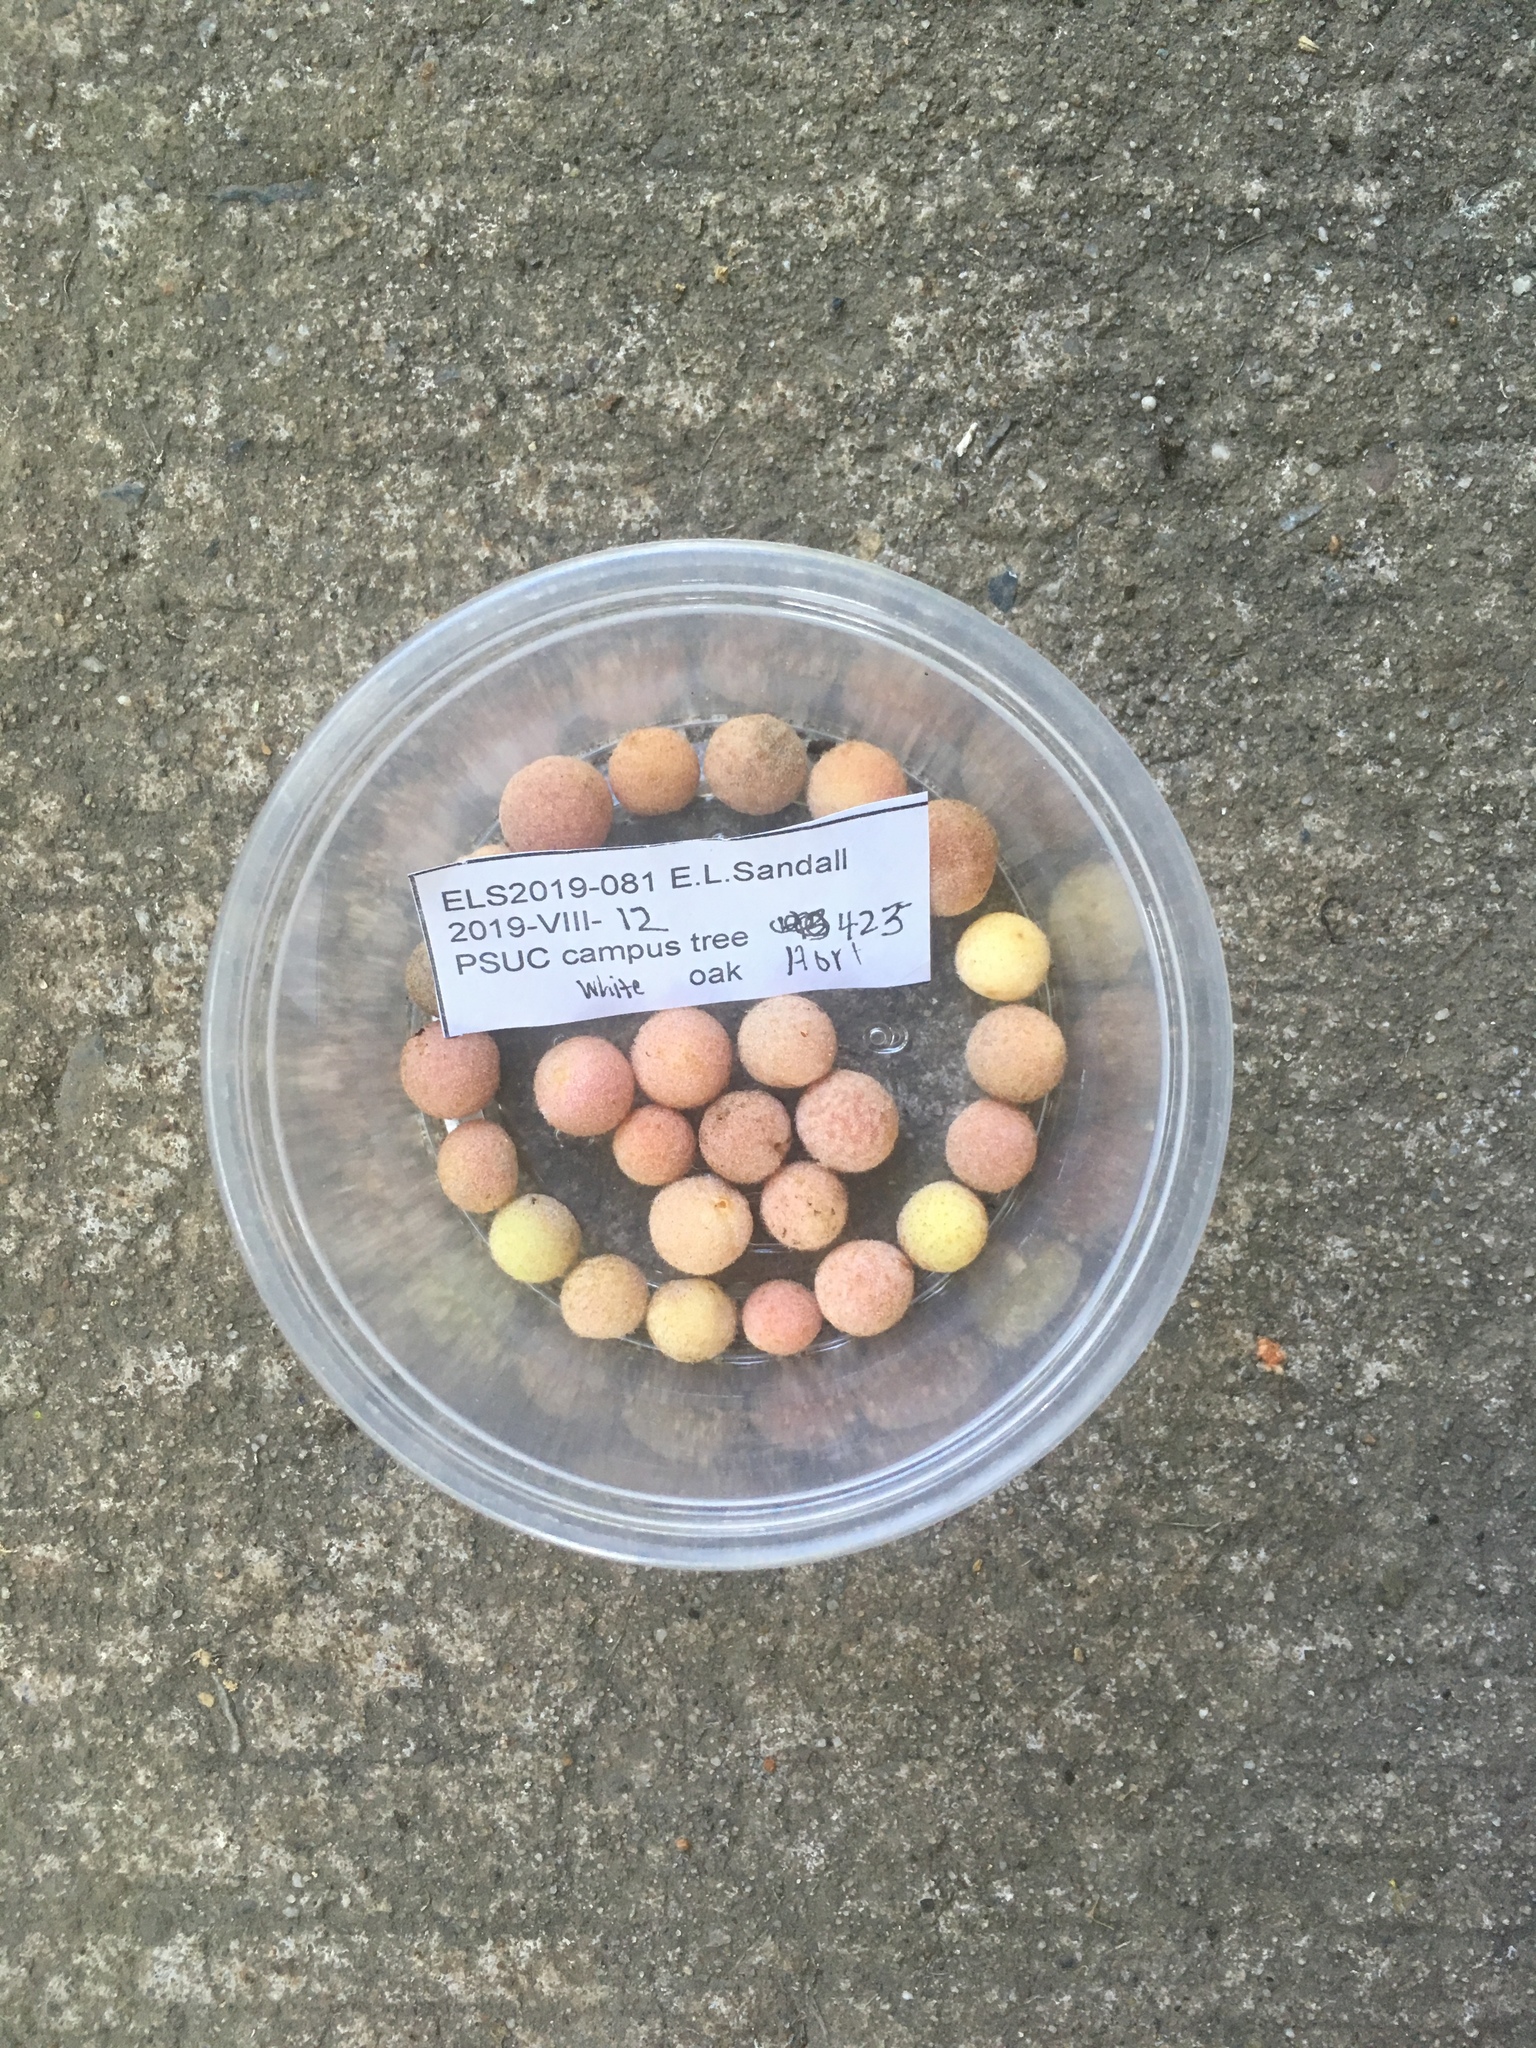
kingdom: Animalia
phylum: Arthropoda
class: Insecta
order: Hymenoptera
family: Cynipidae
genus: Philonix
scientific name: Philonix fulvicollis
